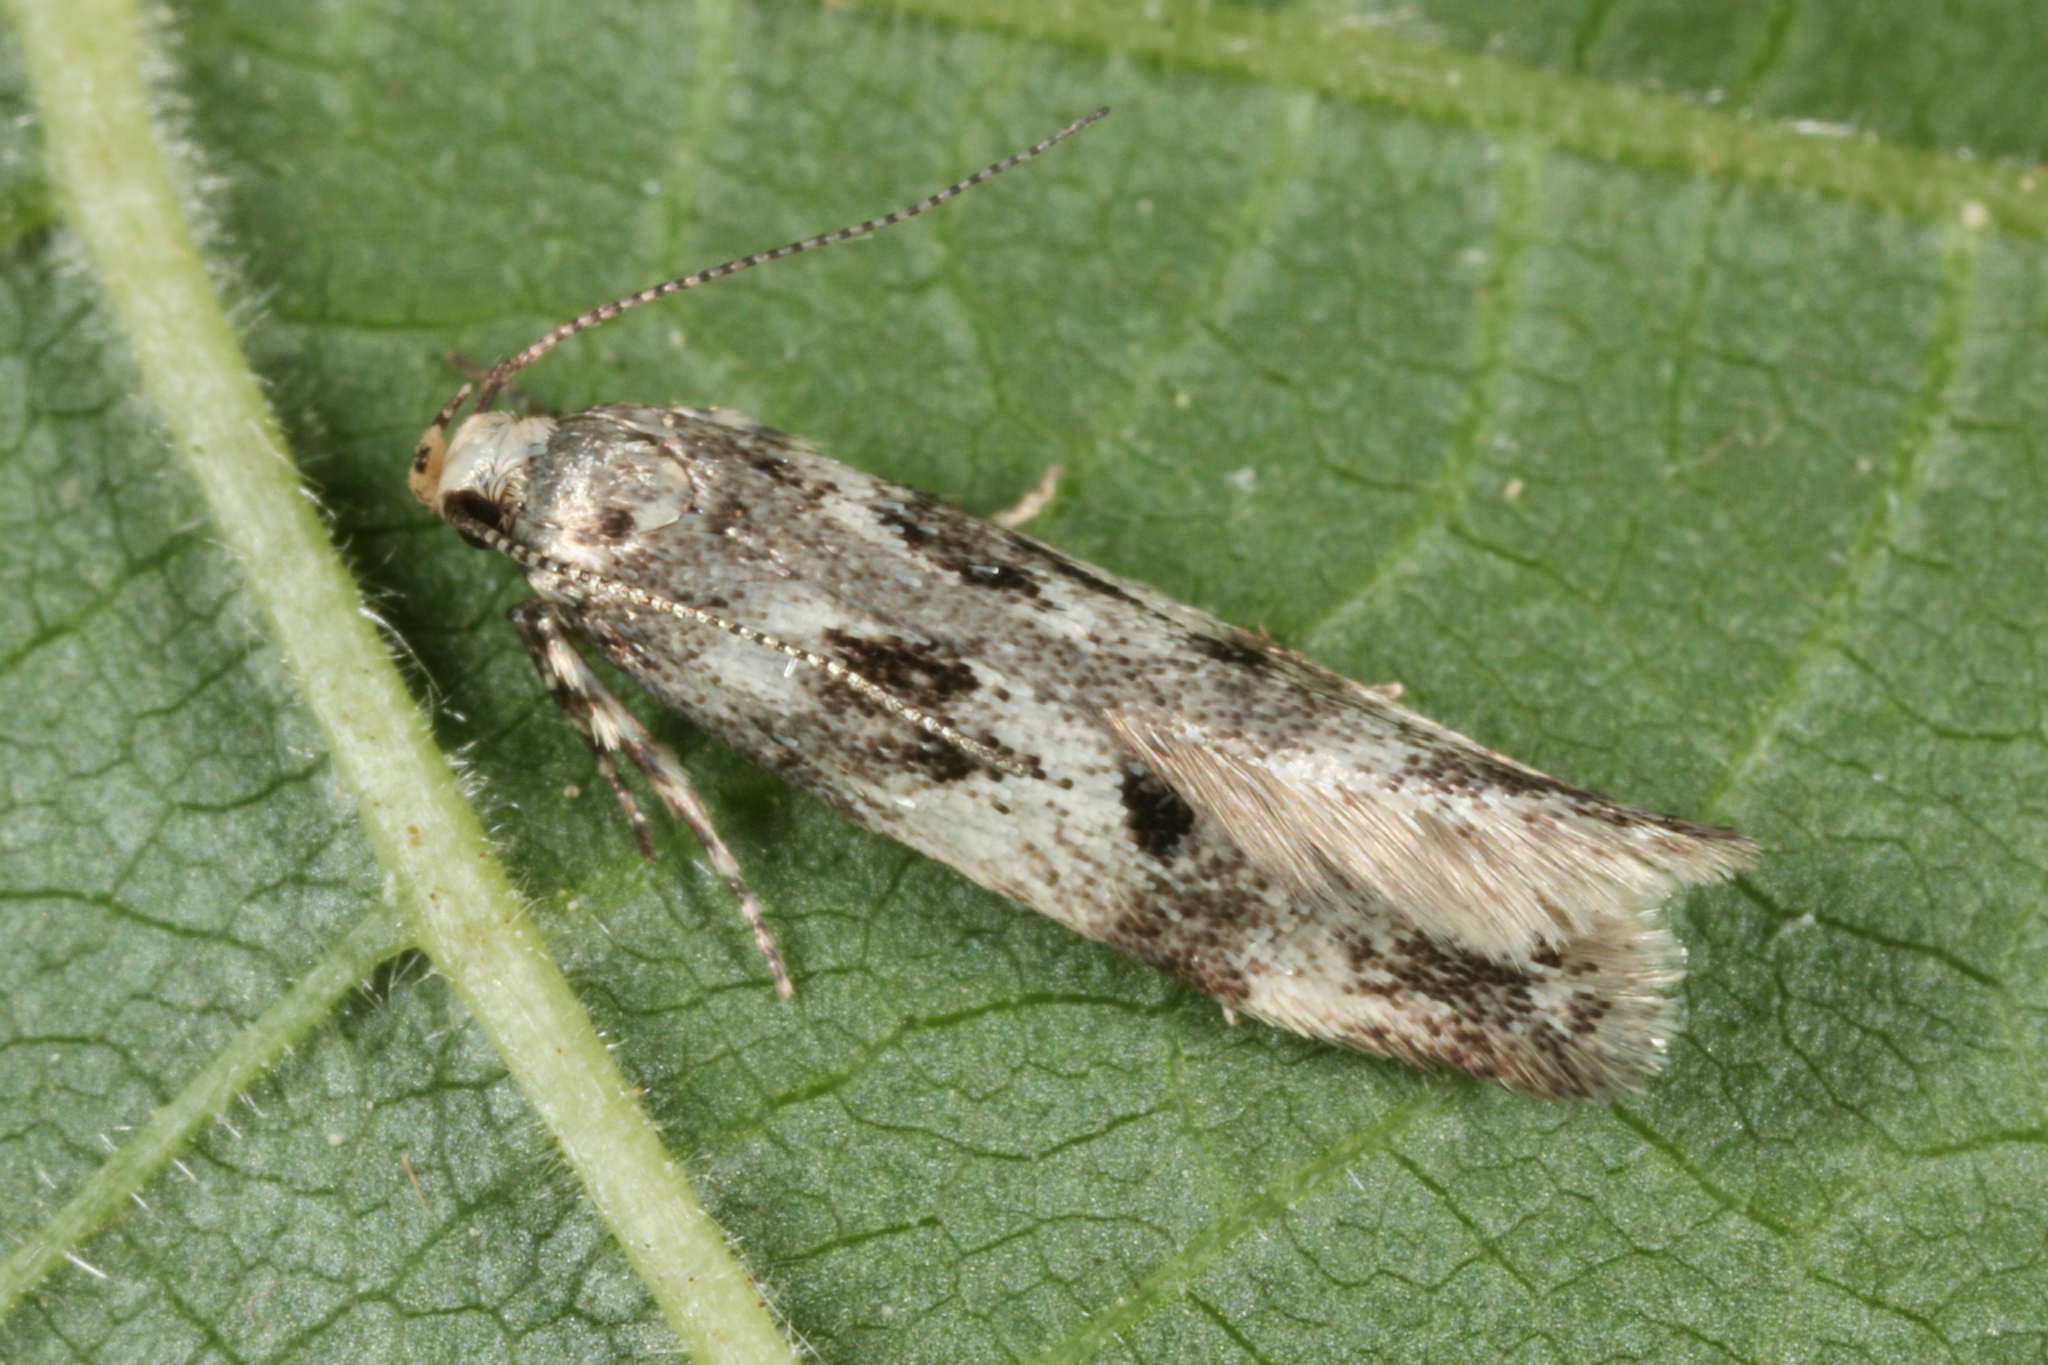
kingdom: Animalia
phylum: Arthropoda
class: Insecta
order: Lepidoptera
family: Gelechiidae
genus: Chionodes
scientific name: Chionodes electella
